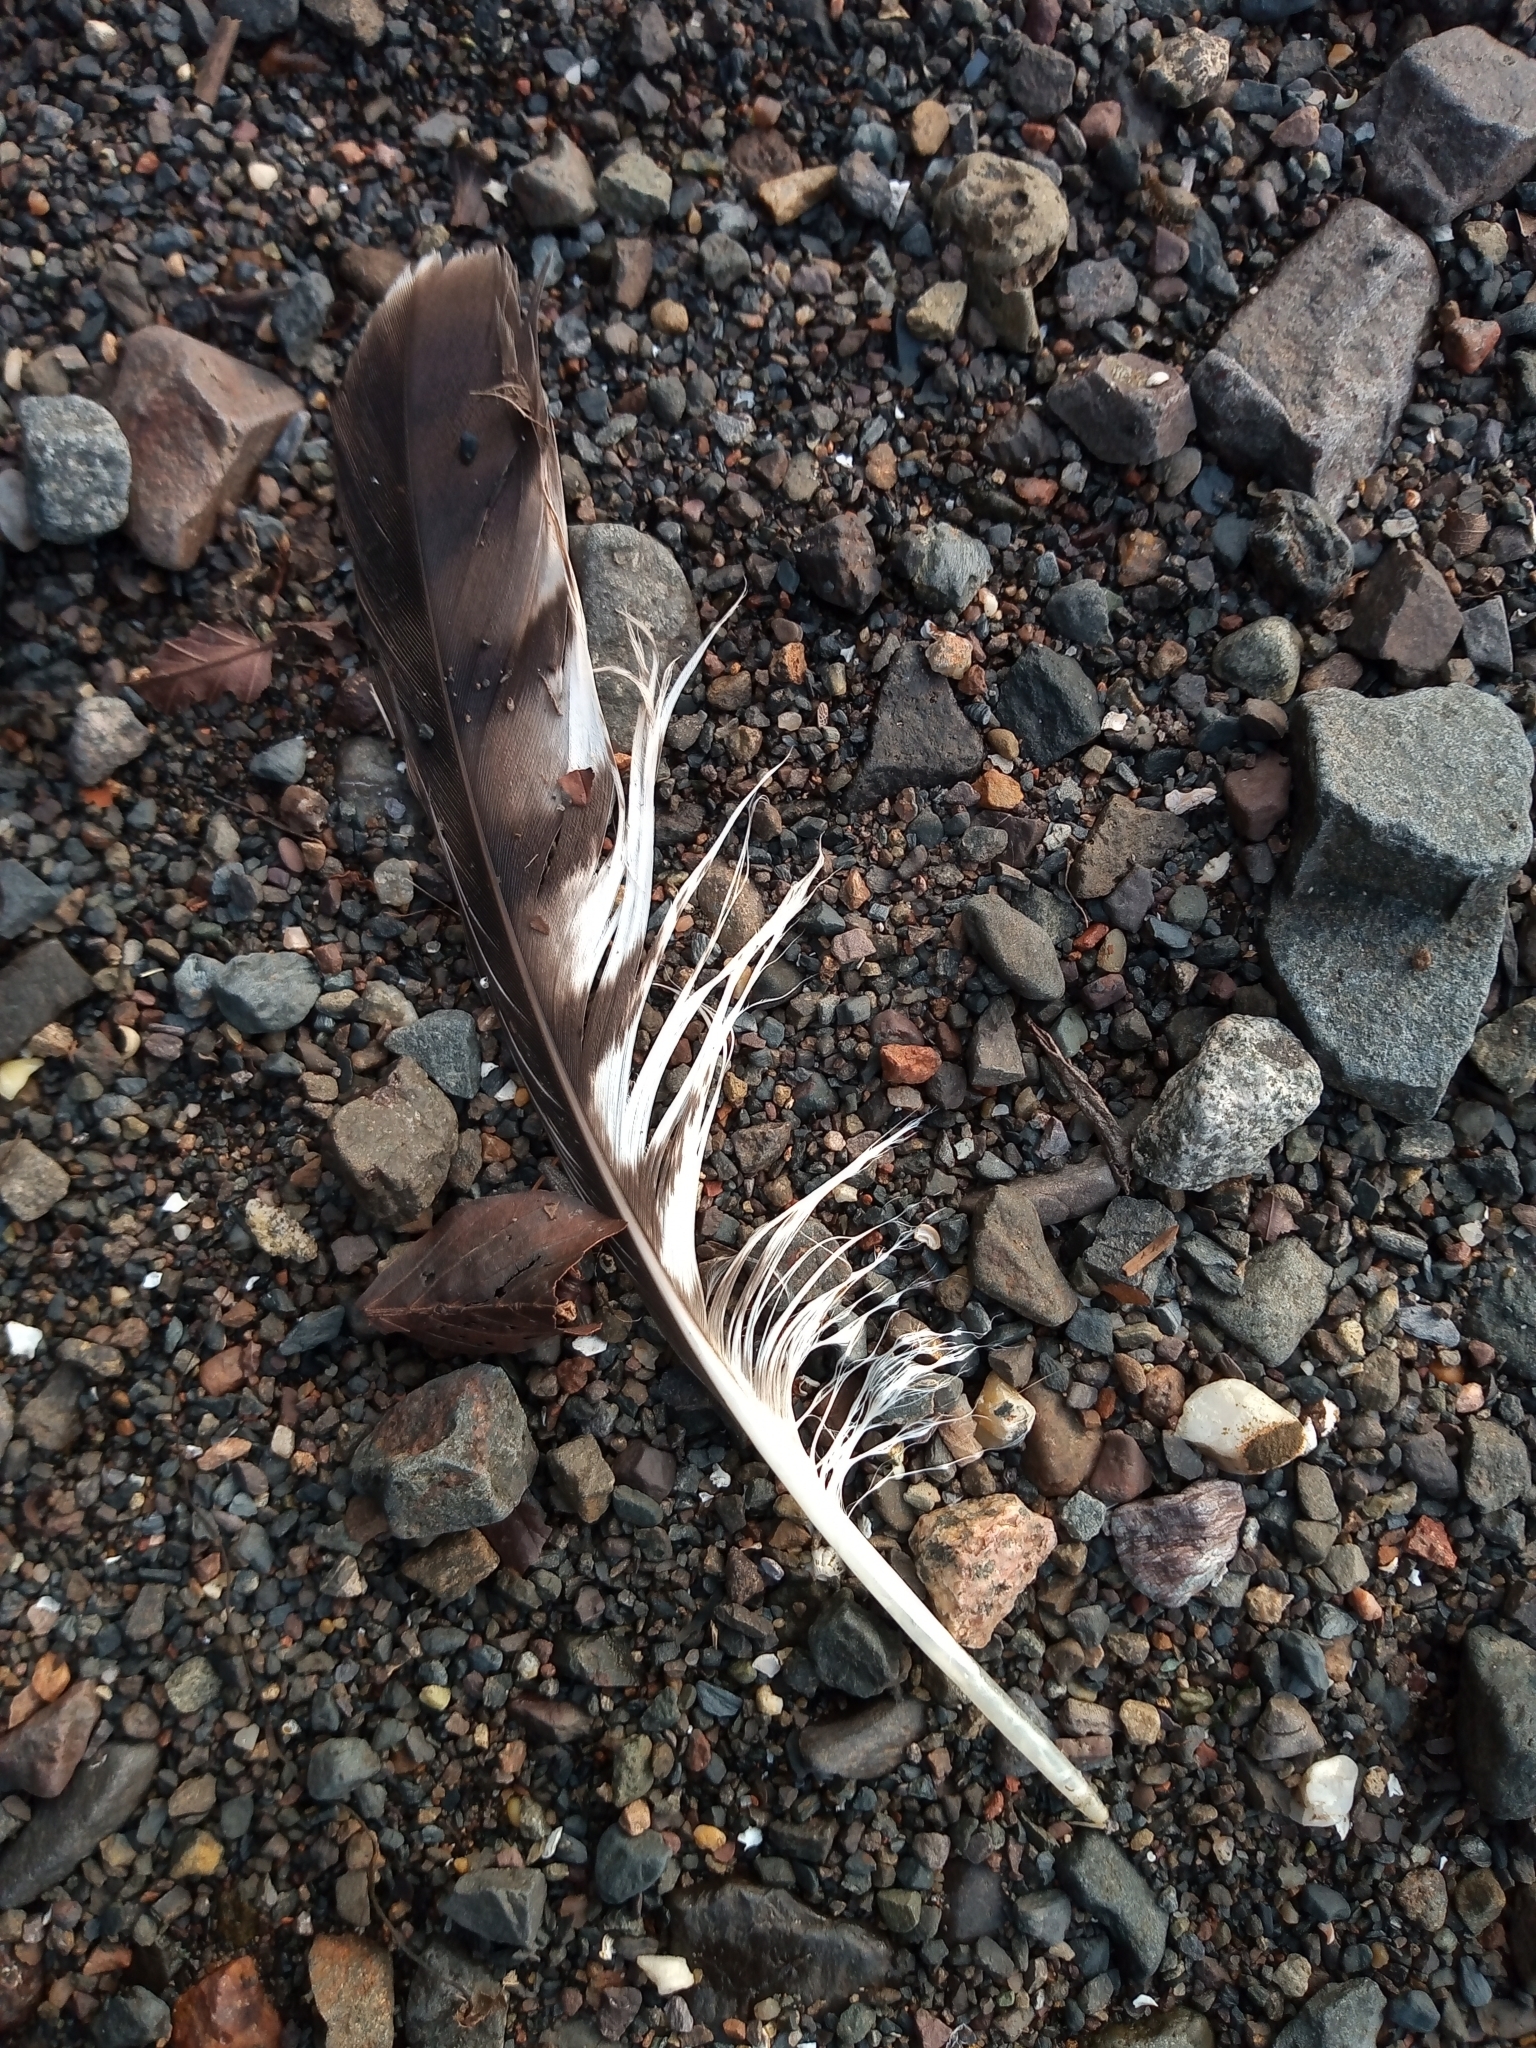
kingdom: Animalia
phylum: Chordata
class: Aves
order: Accipitriformes
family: Accipitridae
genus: Buteo
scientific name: Buteo buteo
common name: Common buzzard
